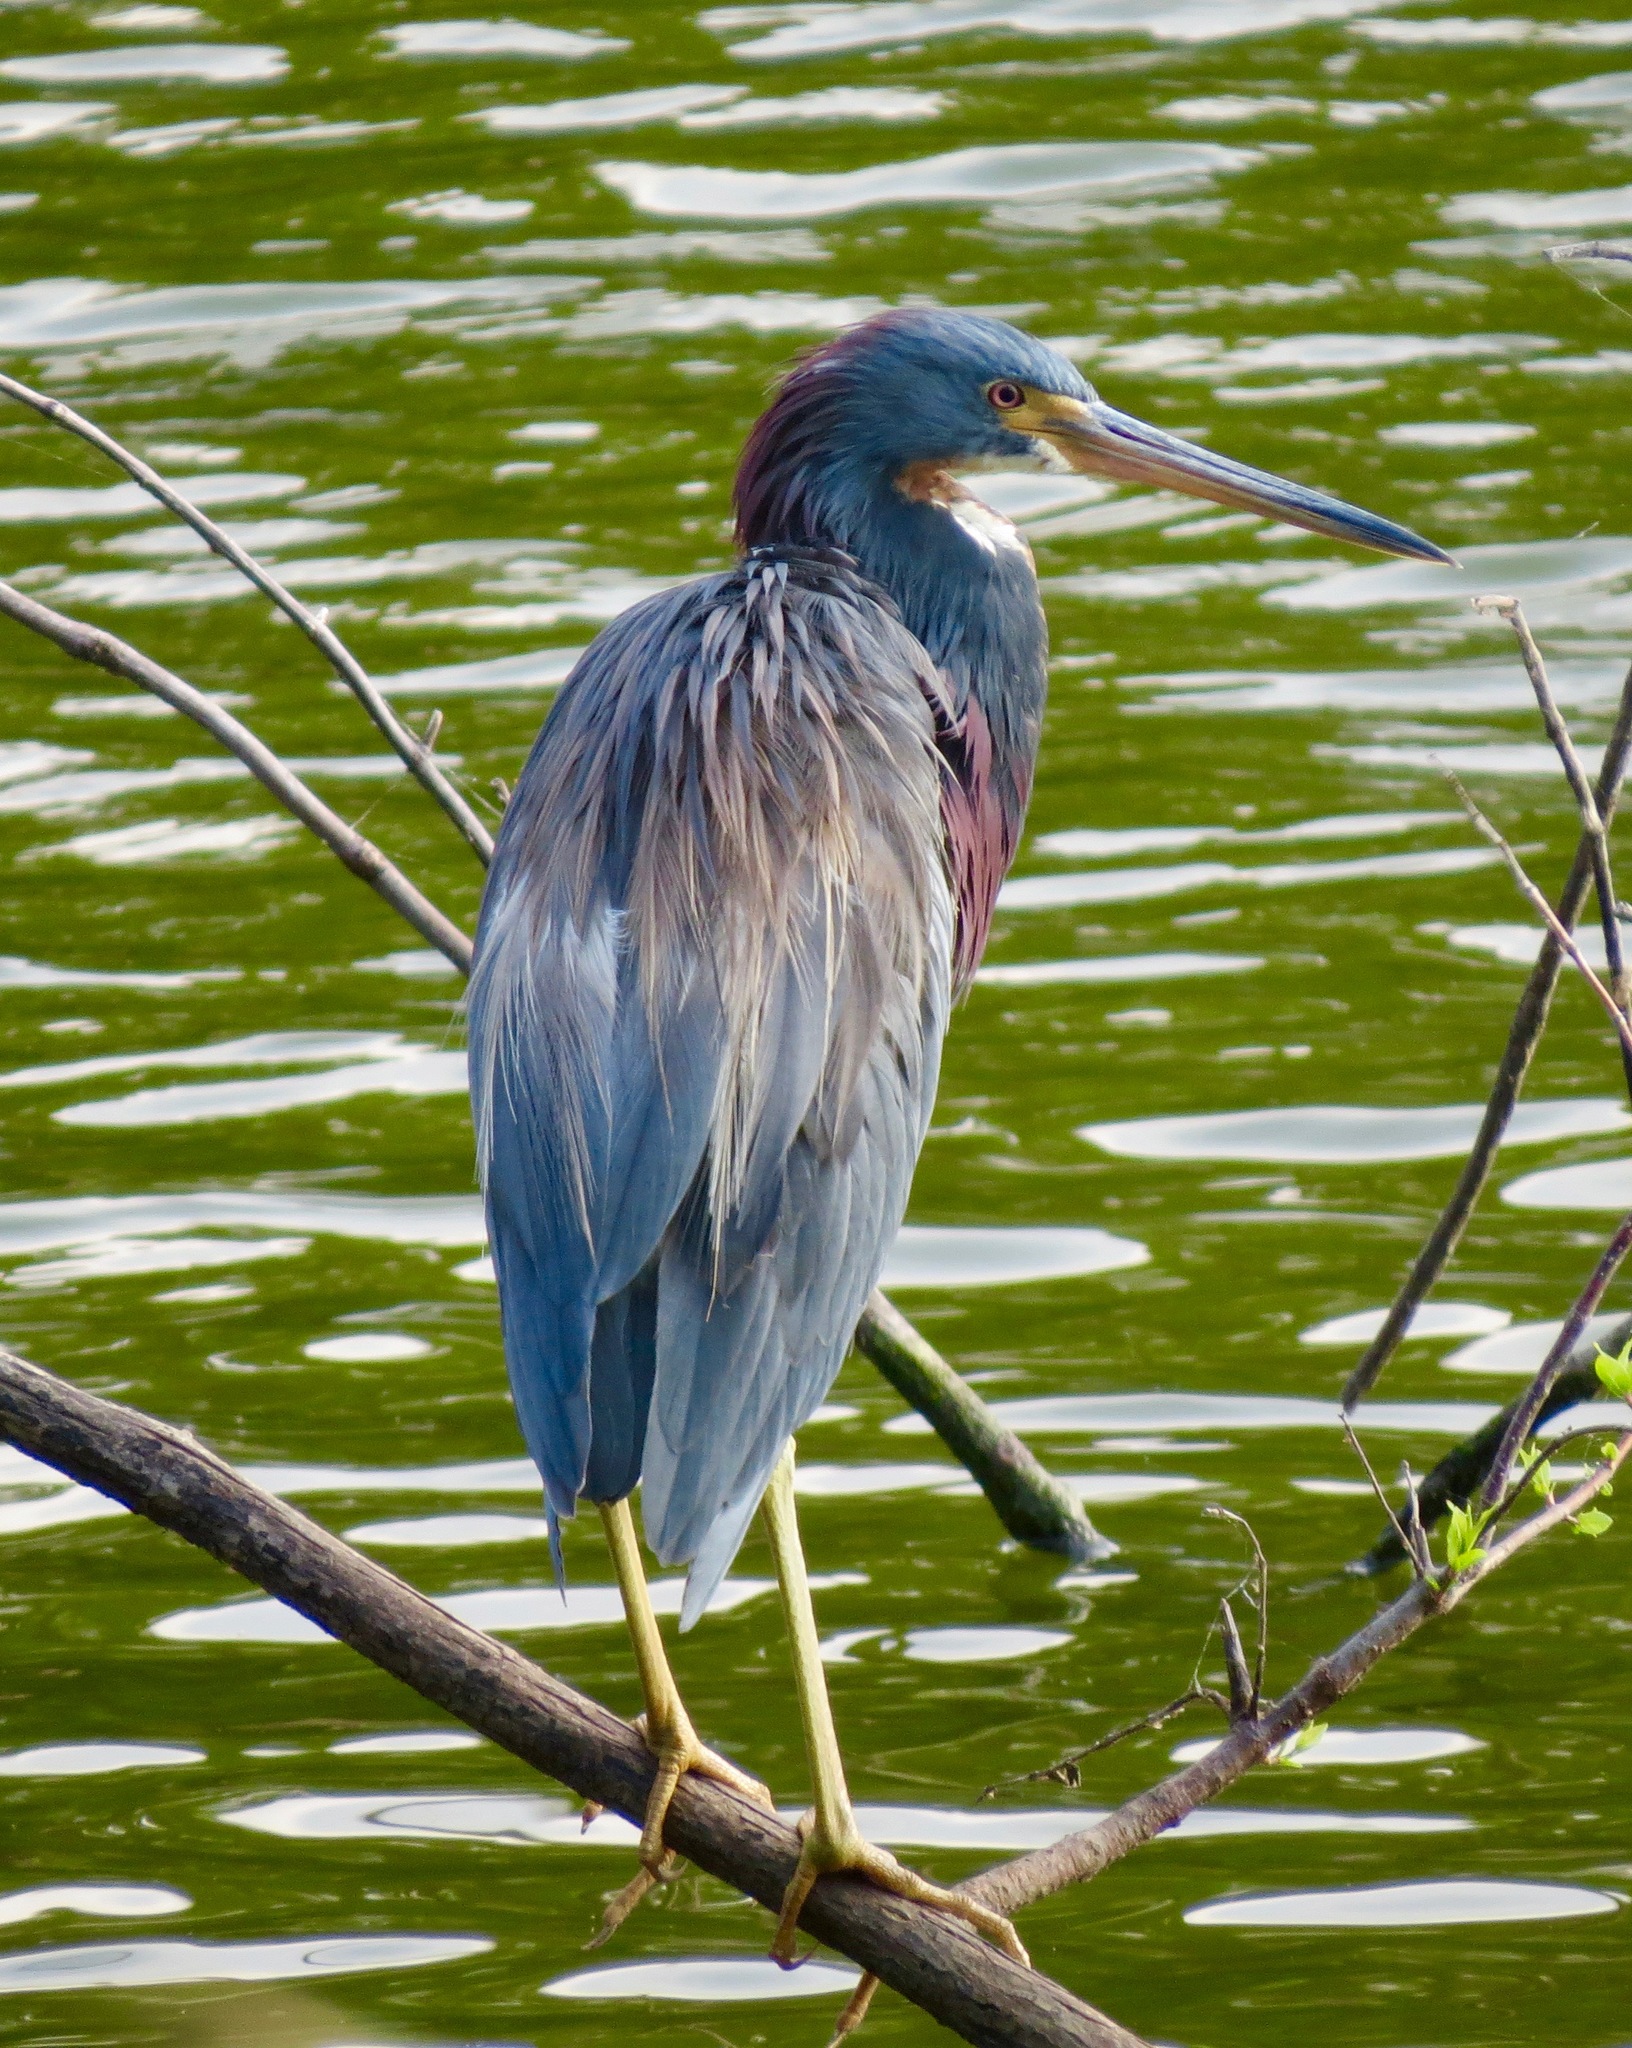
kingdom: Animalia
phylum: Chordata
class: Aves
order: Pelecaniformes
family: Ardeidae
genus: Egretta
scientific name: Egretta tricolor
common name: Tricolored heron
